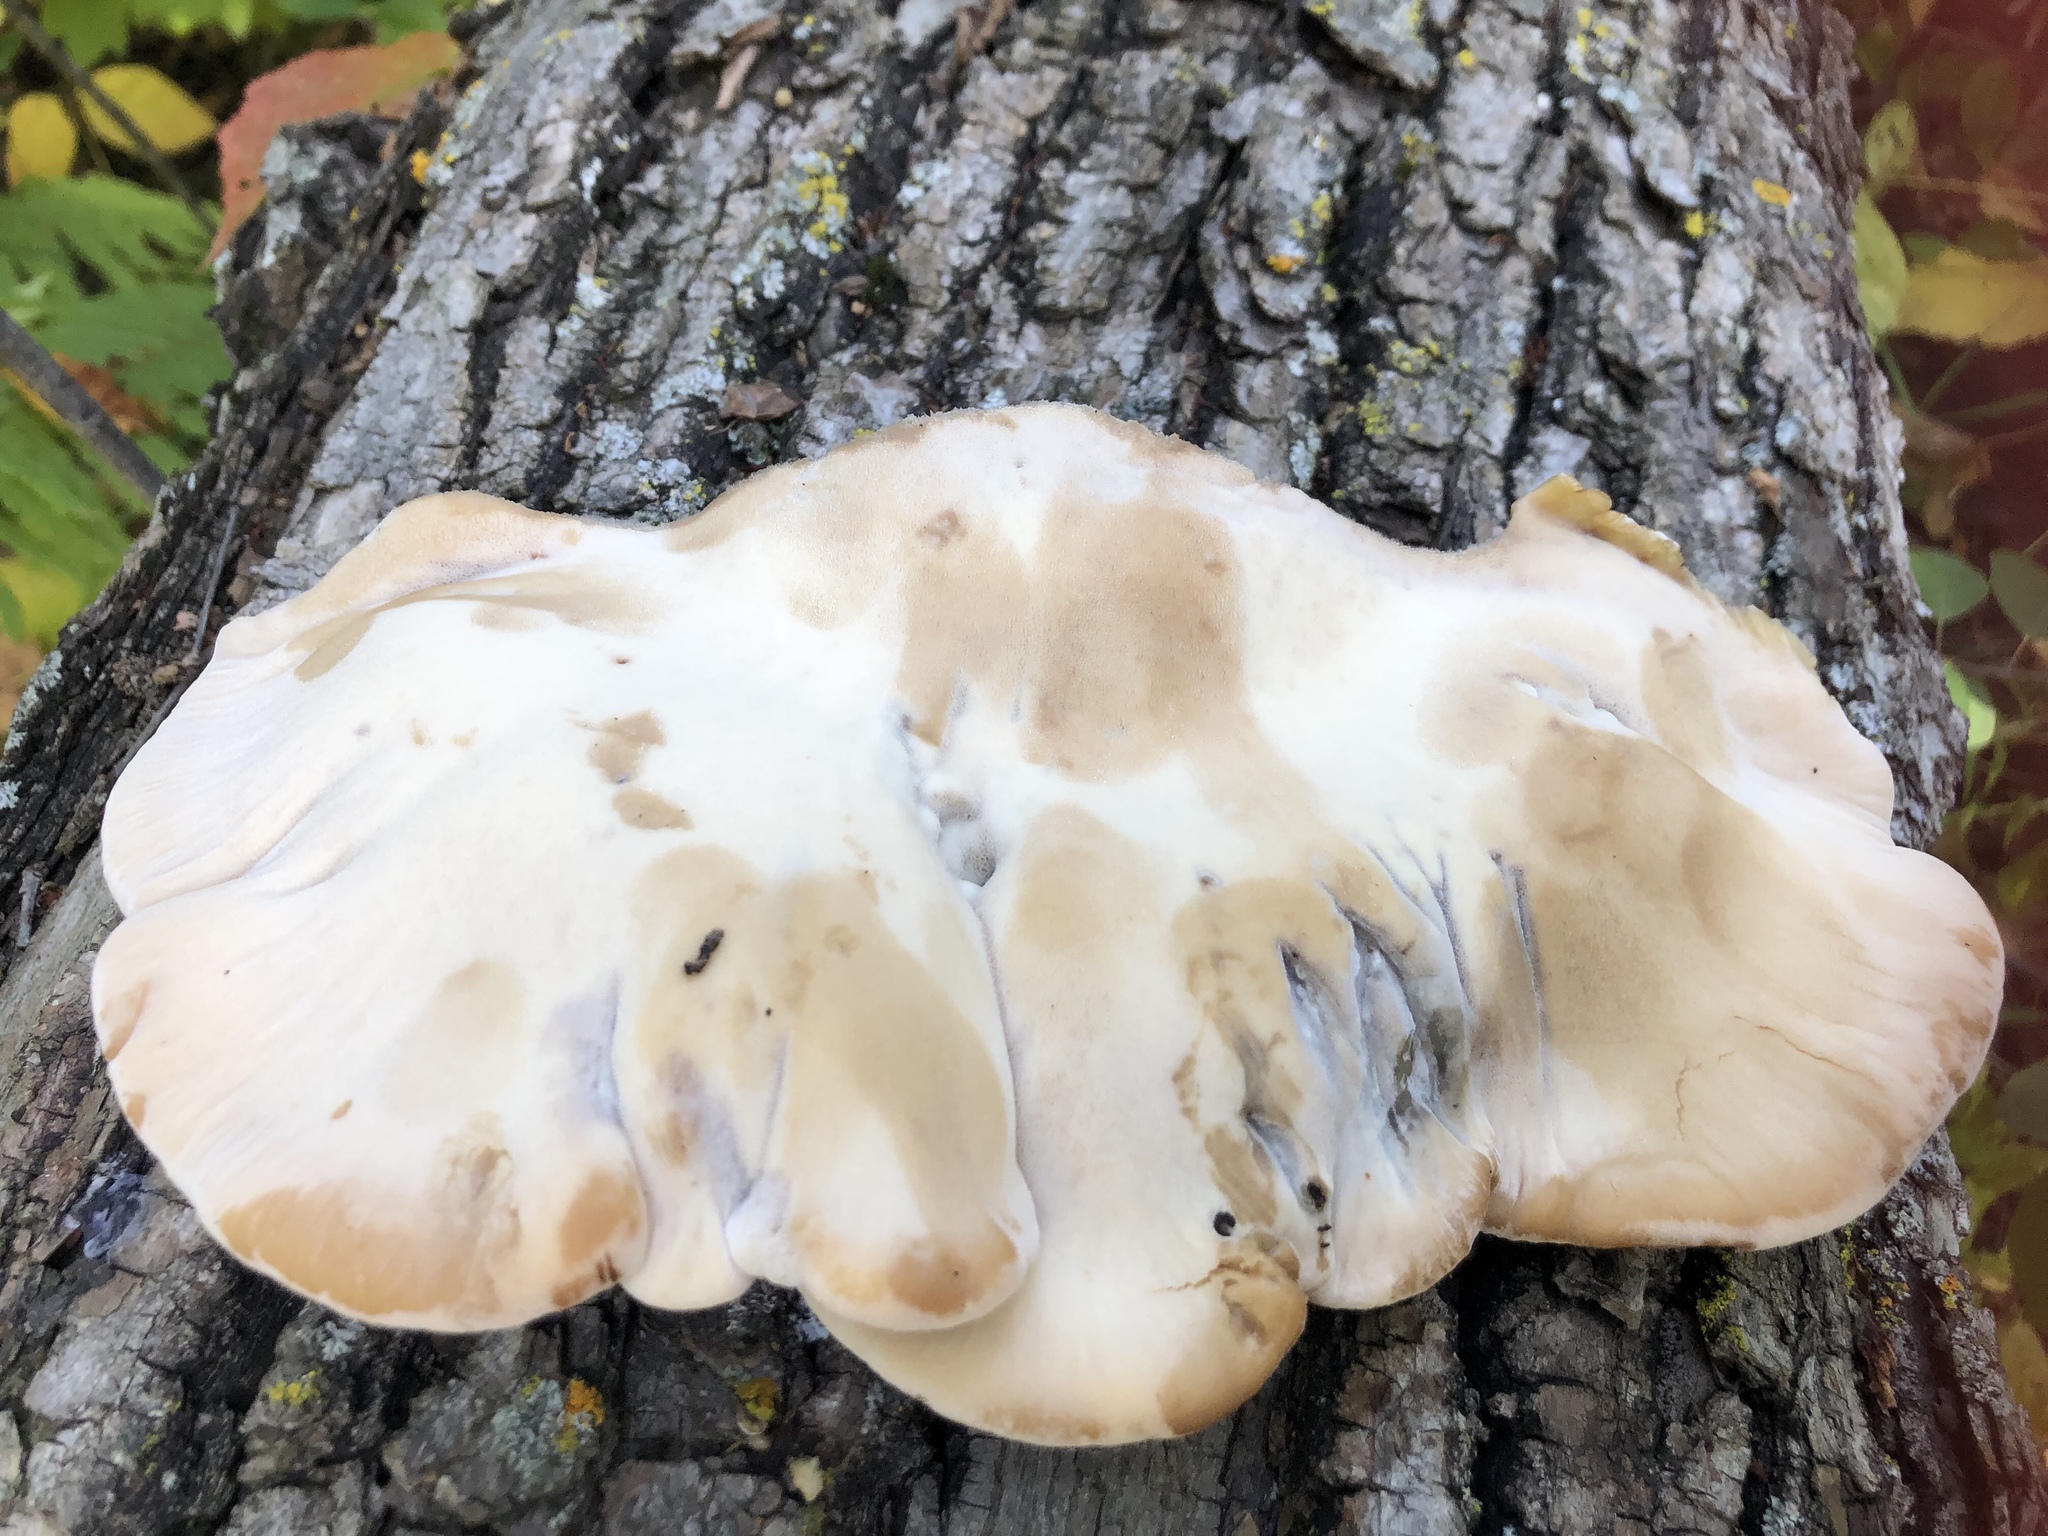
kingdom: Fungi
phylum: Basidiomycota
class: Agaricomycetes
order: Polyporales
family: Ischnodermataceae
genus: Ischnoderma
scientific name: Ischnoderma resinosum
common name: Resinous polypore
